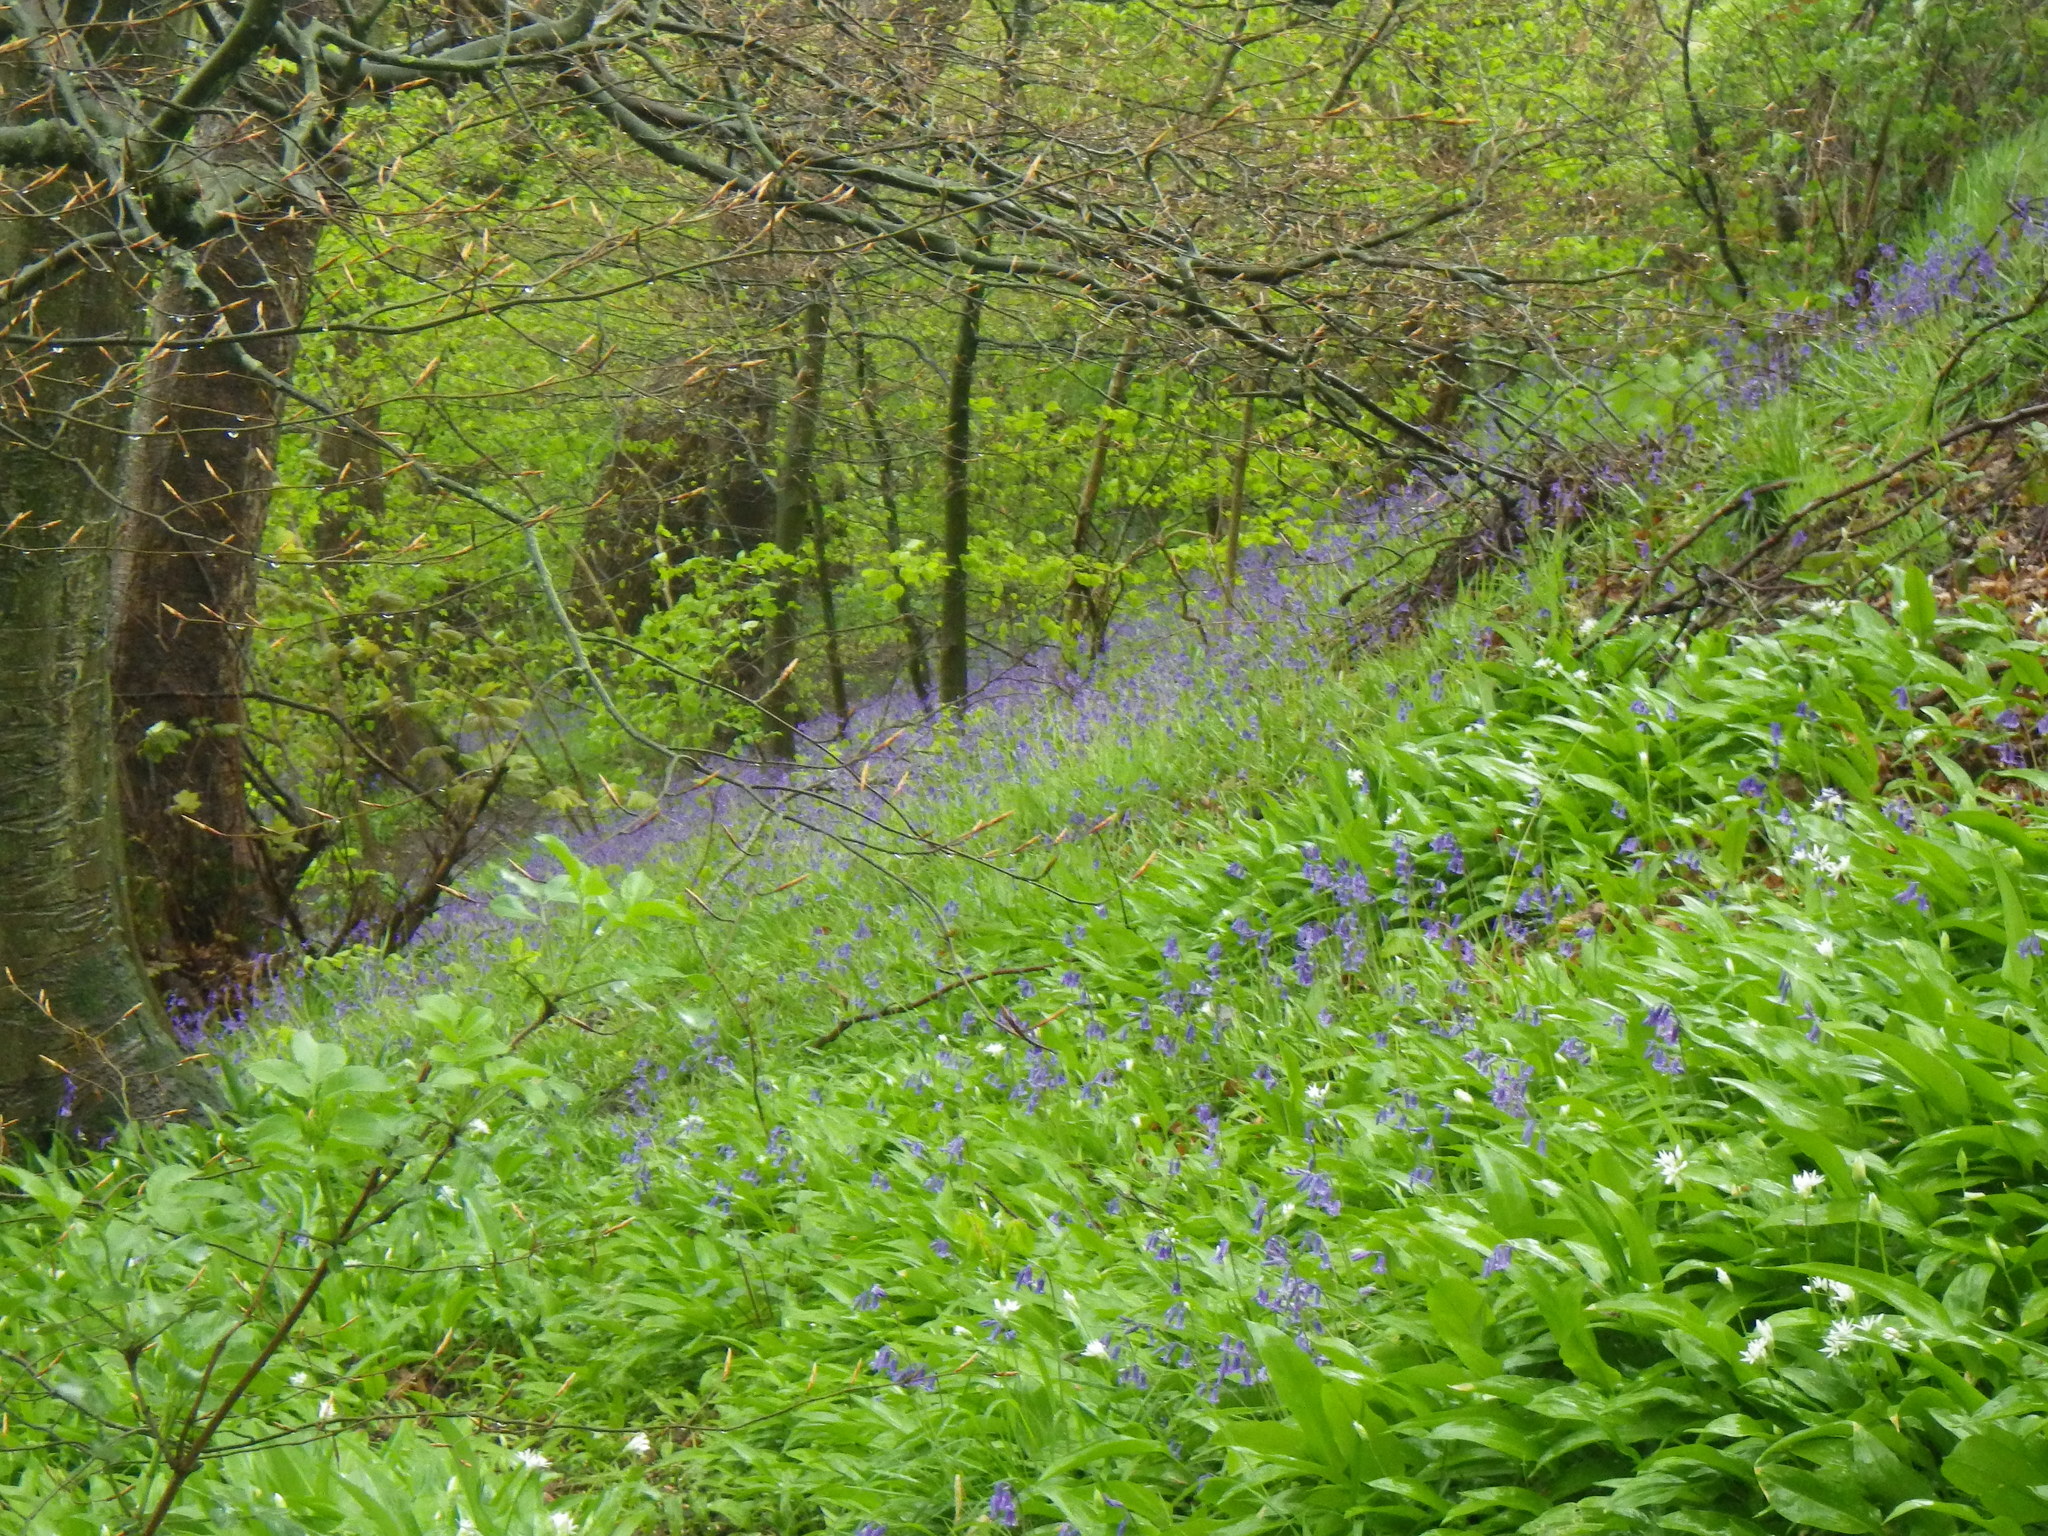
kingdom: Plantae
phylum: Tracheophyta
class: Liliopsida
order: Asparagales
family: Asparagaceae
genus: Hyacinthoides
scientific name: Hyacinthoides non-scripta
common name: Bluebell
